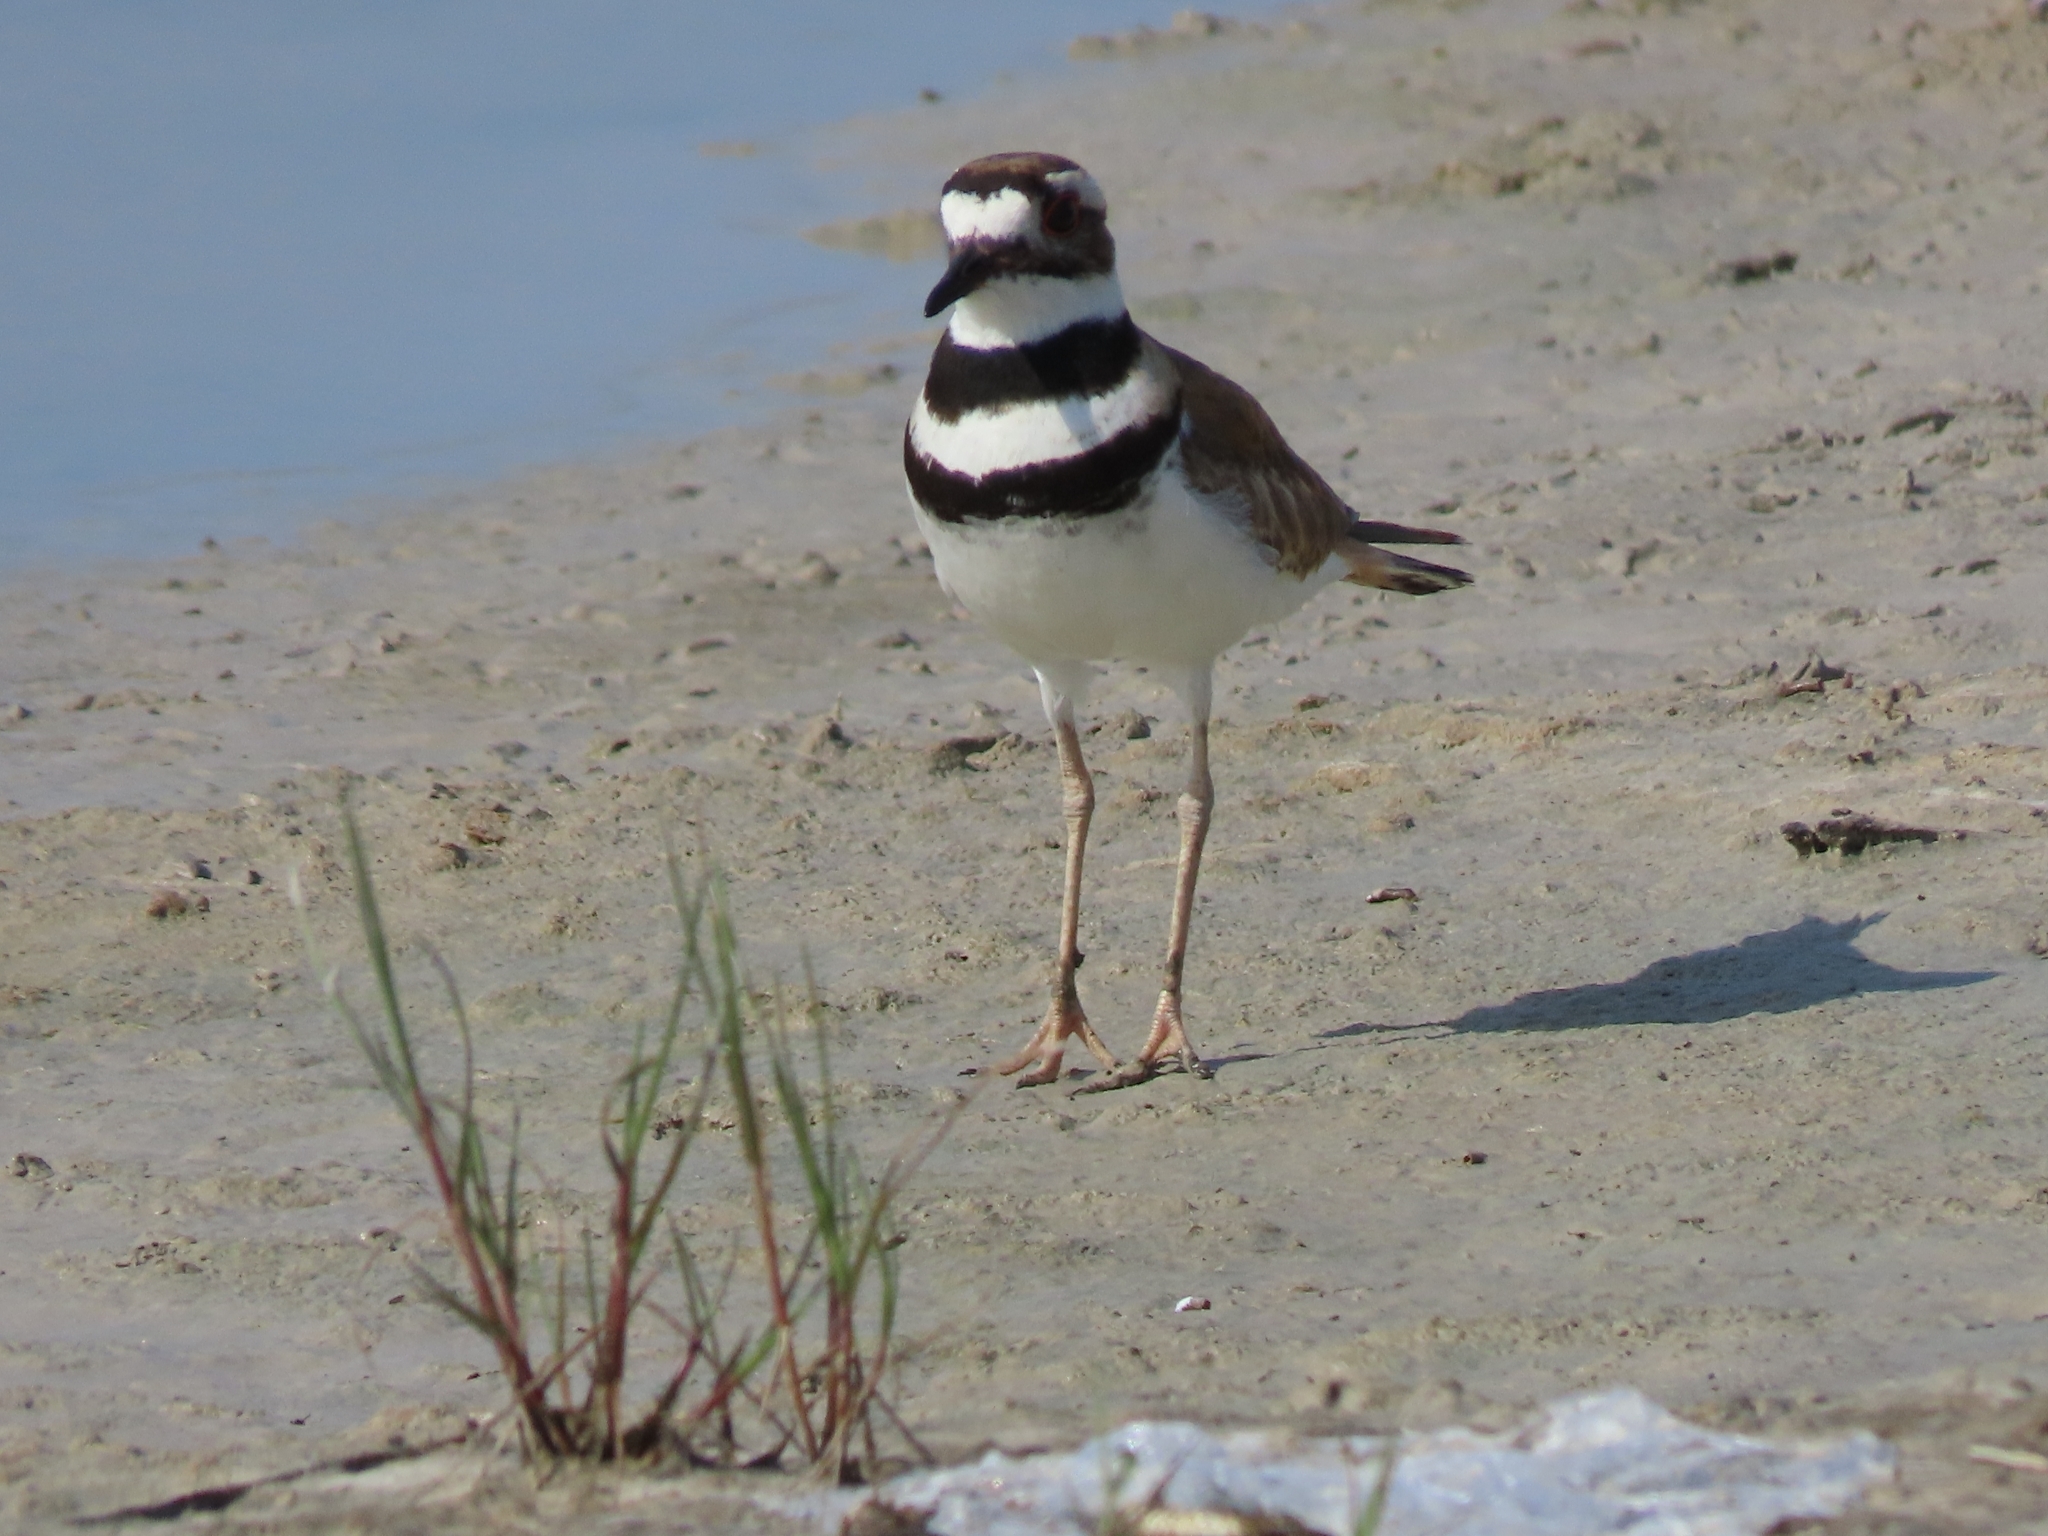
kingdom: Animalia
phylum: Chordata
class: Aves
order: Charadriiformes
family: Charadriidae
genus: Charadrius
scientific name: Charadrius vociferus
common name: Killdeer
